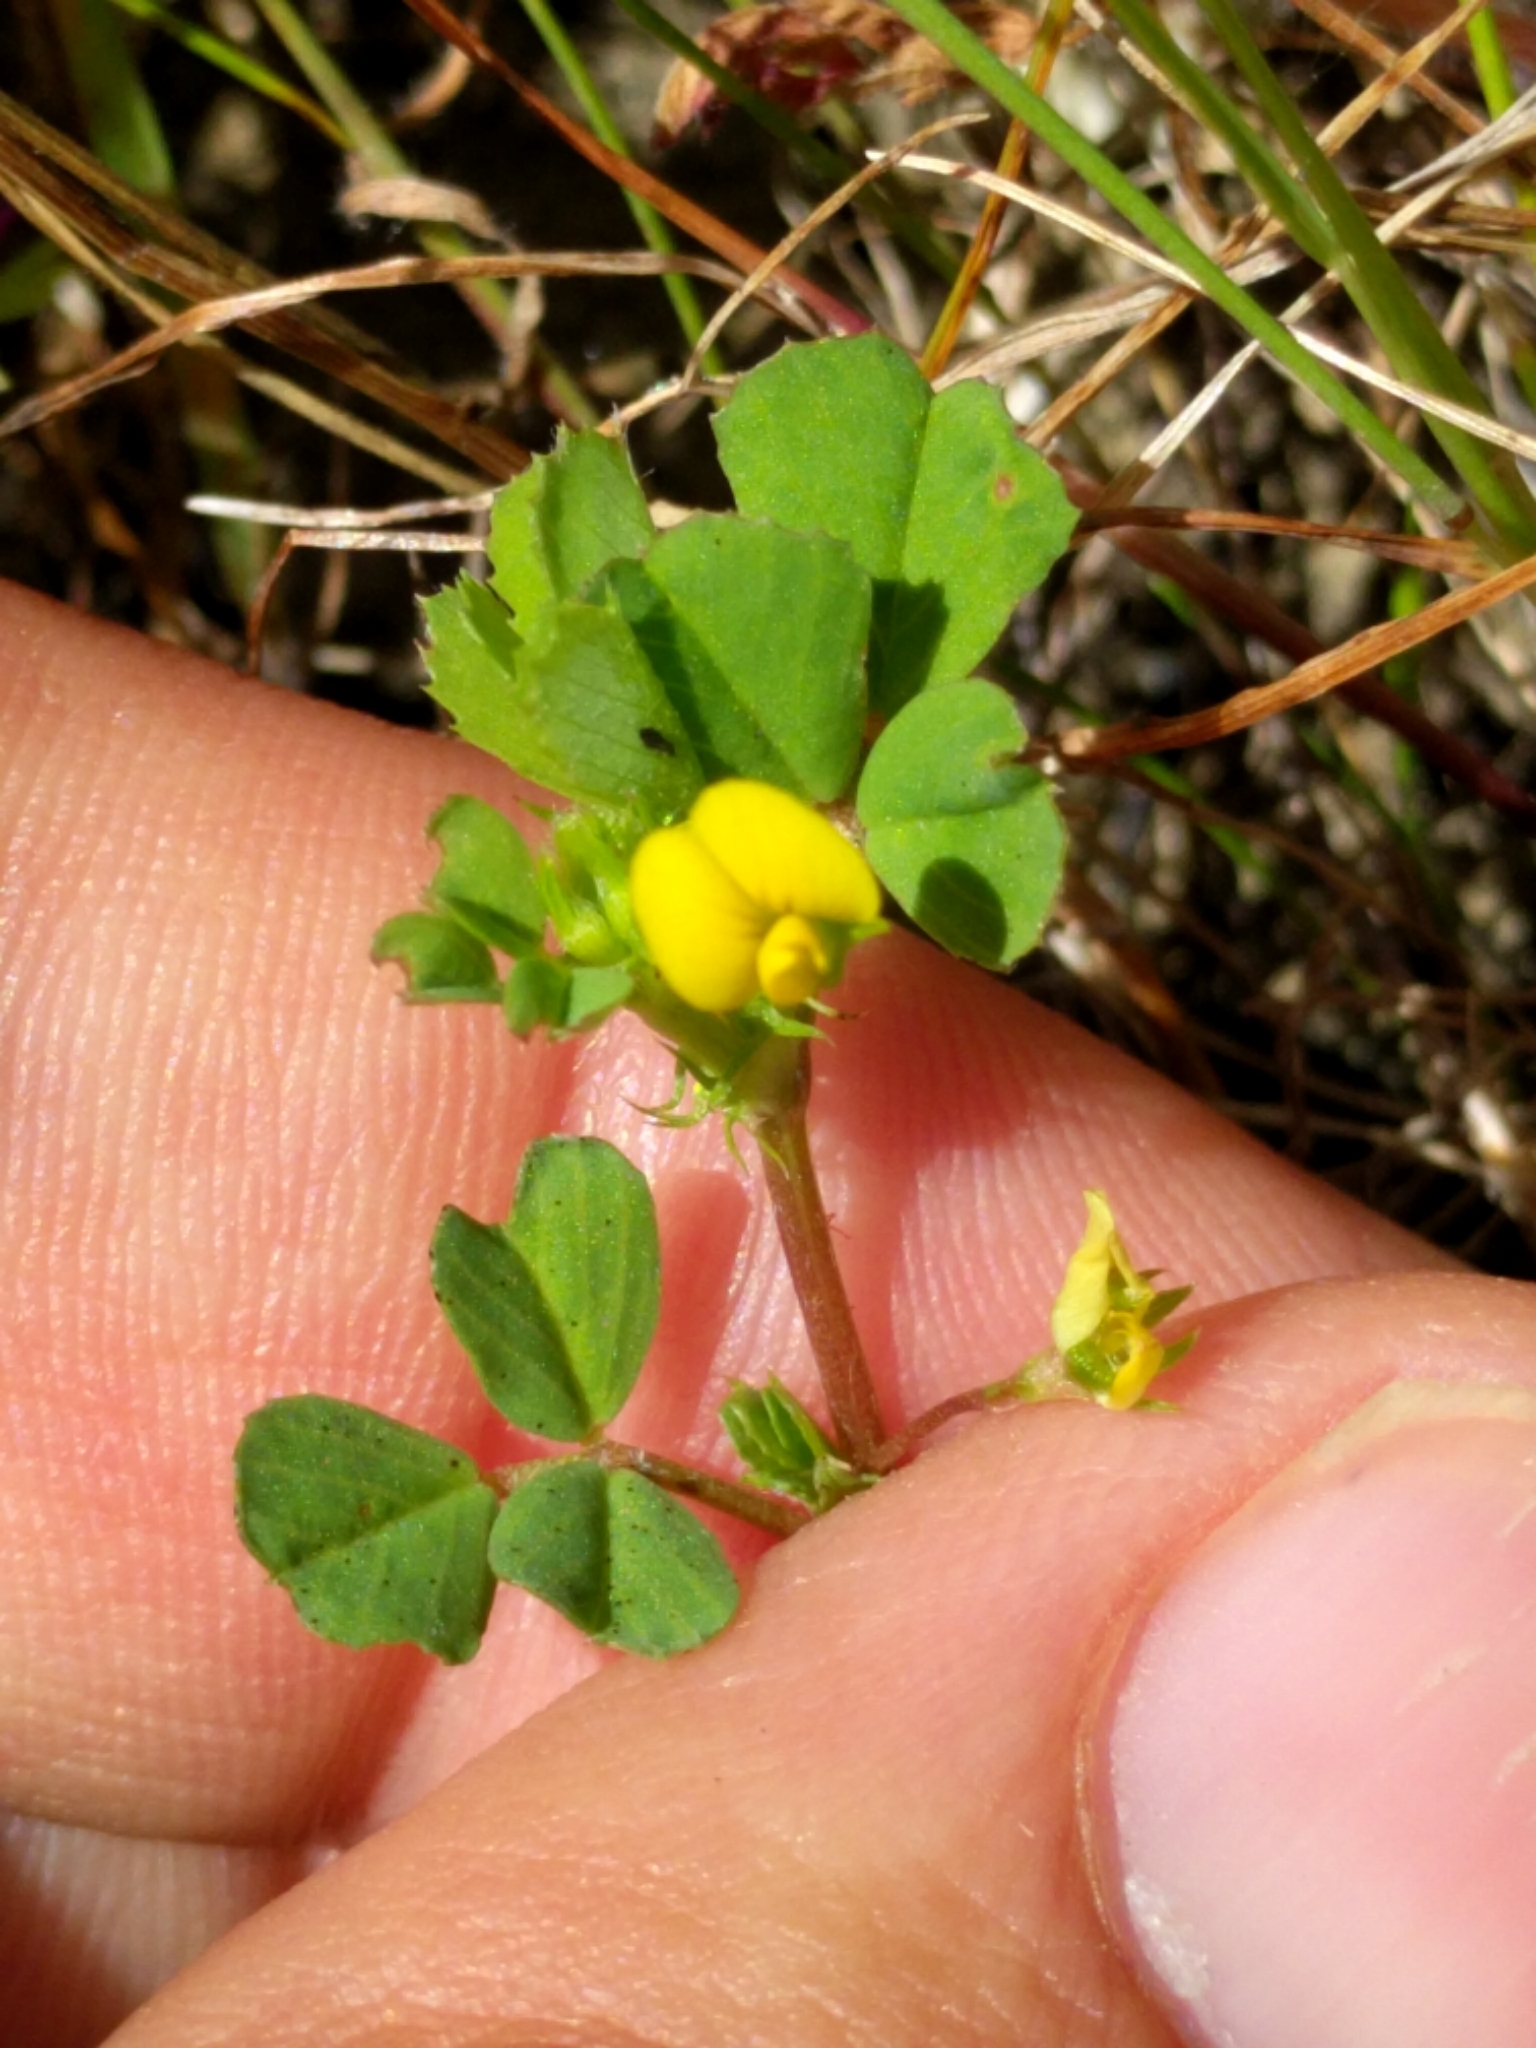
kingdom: Plantae
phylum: Tracheophyta
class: Magnoliopsida
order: Fabales
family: Fabaceae
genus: Medicago
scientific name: Medicago polymorpha
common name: Burclover
